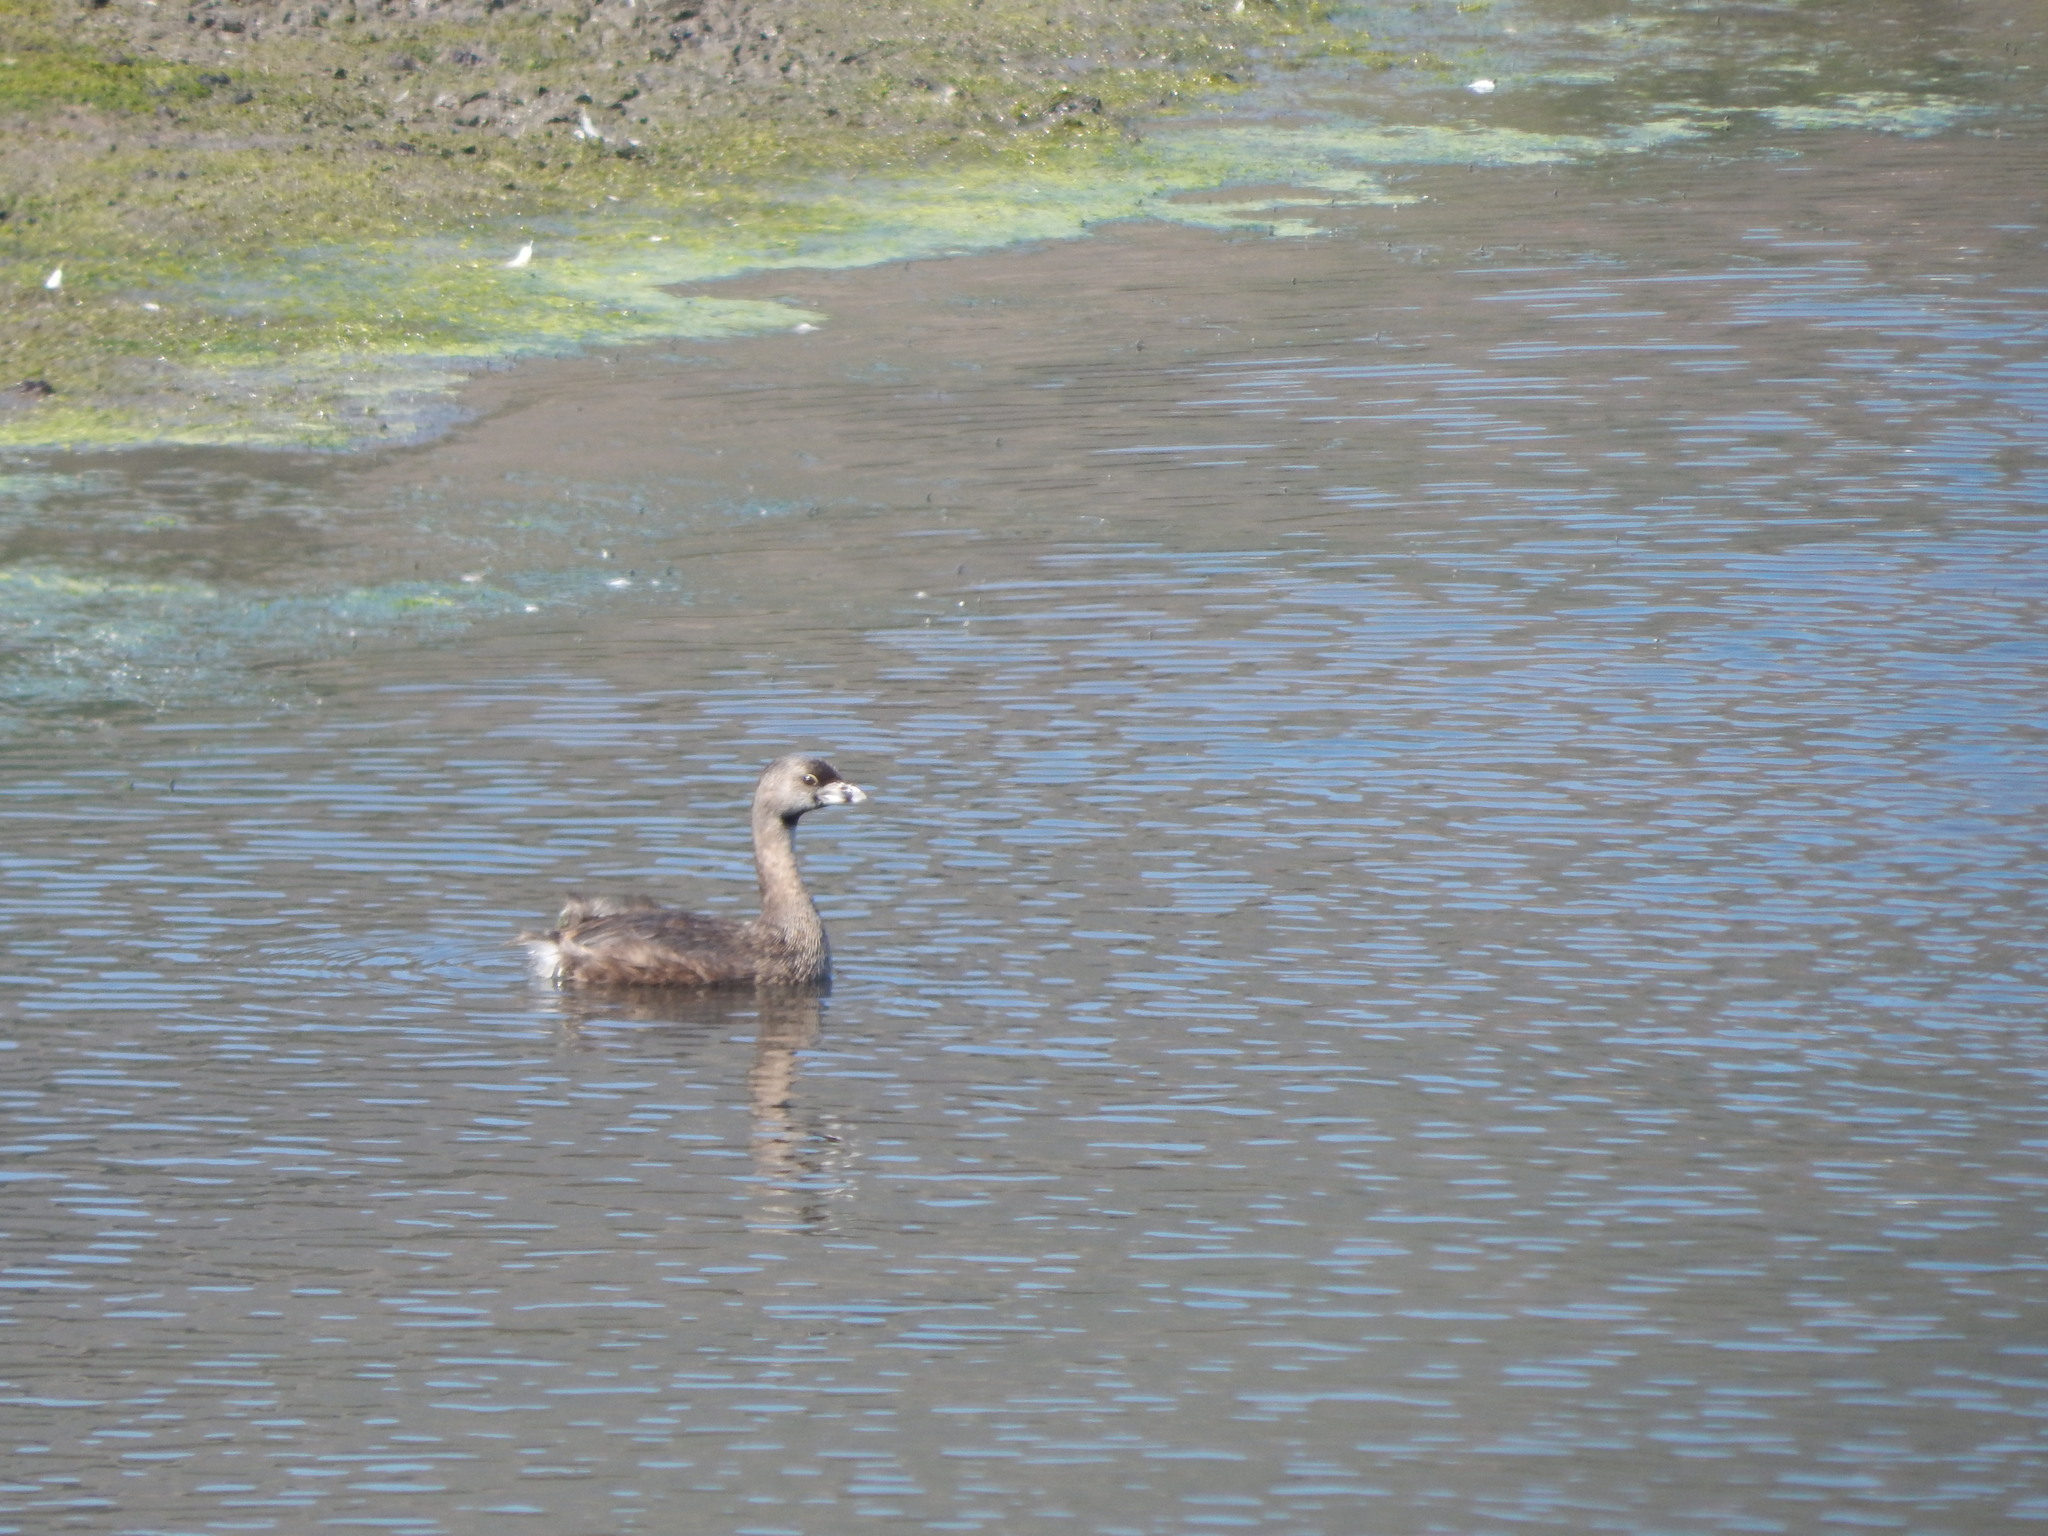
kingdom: Animalia
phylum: Chordata
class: Aves
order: Podicipediformes
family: Podicipedidae
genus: Podilymbus
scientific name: Podilymbus podiceps
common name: Pied-billed grebe
